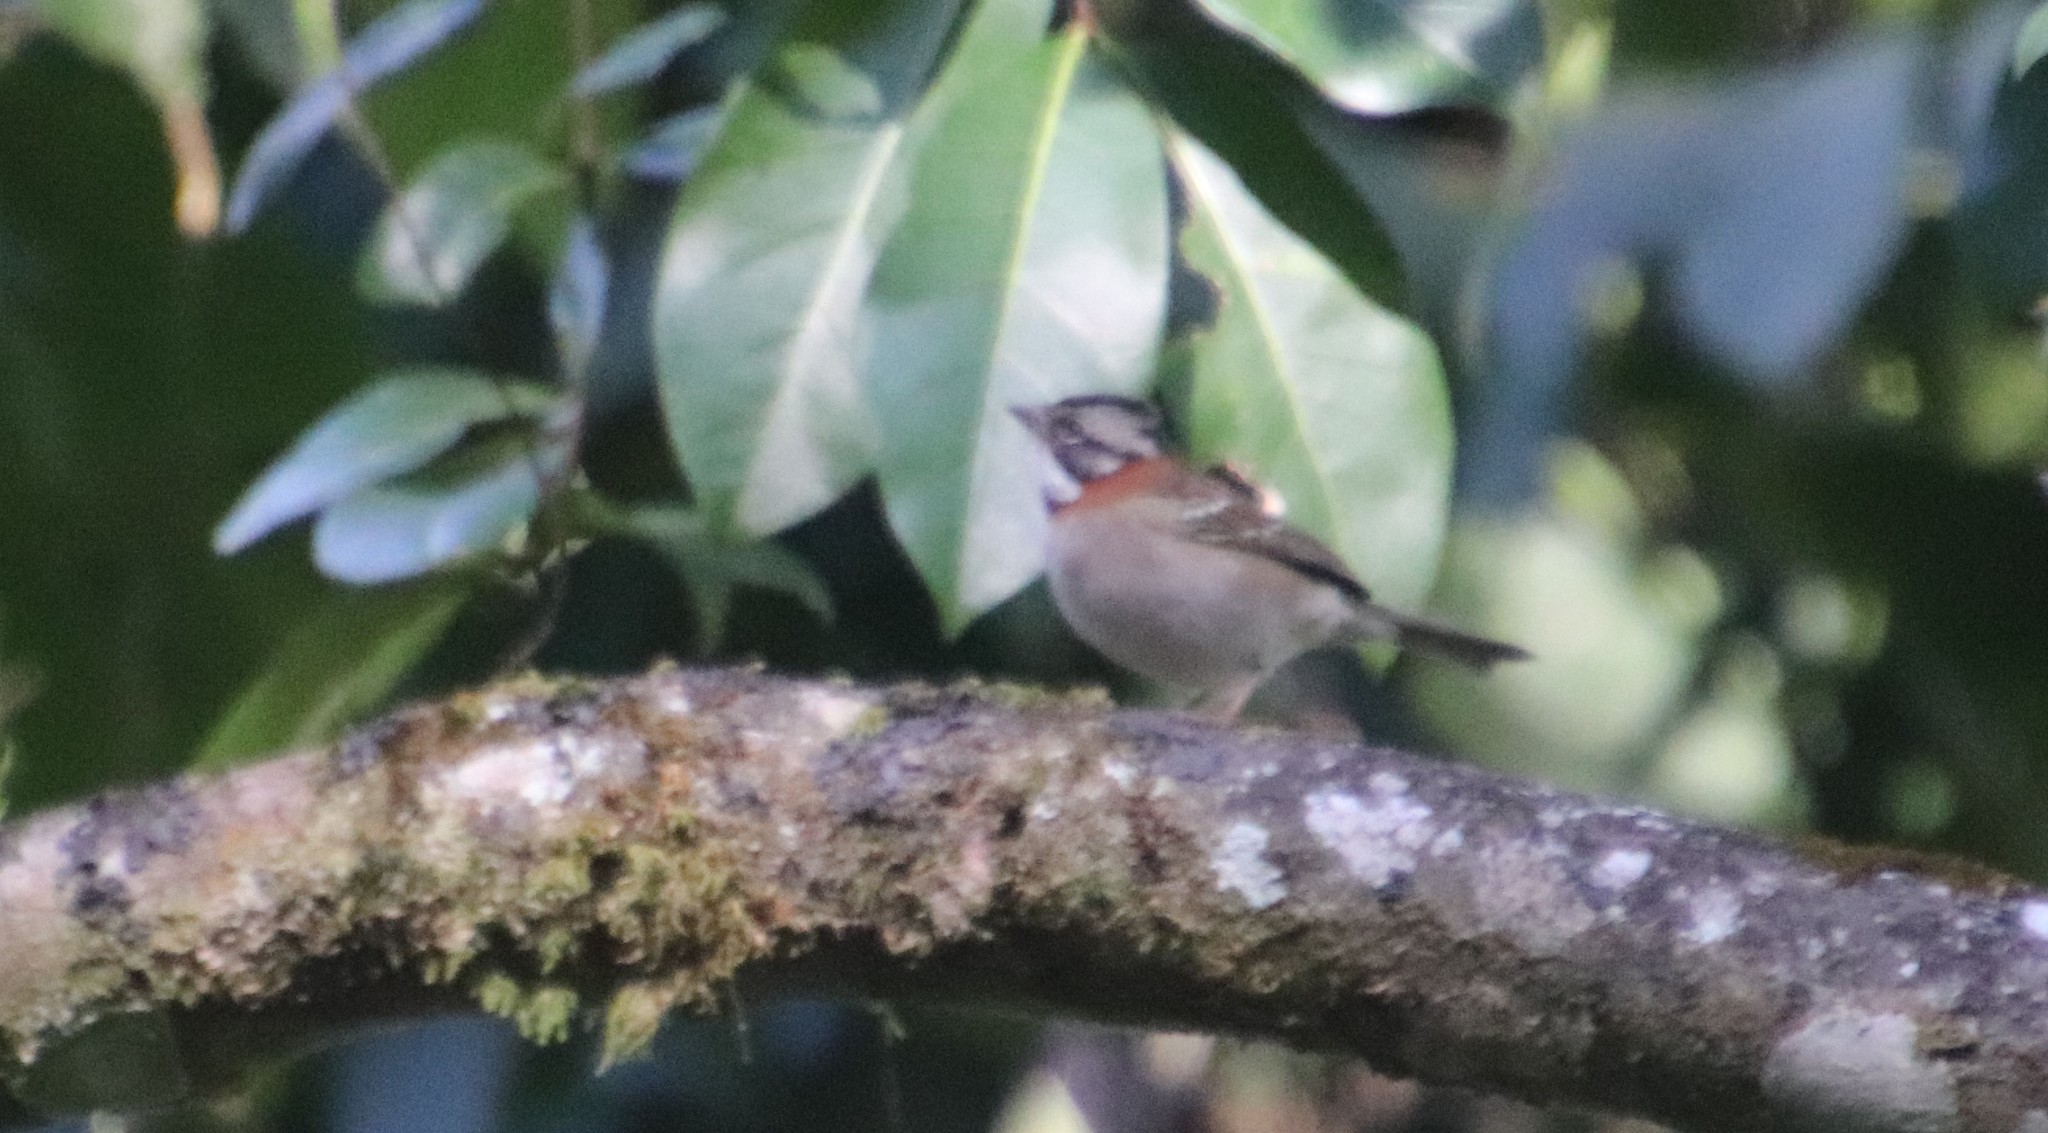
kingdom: Animalia
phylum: Chordata
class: Aves
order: Passeriformes
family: Passerellidae
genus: Zonotrichia
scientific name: Zonotrichia capensis
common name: Rufous-collared sparrow
